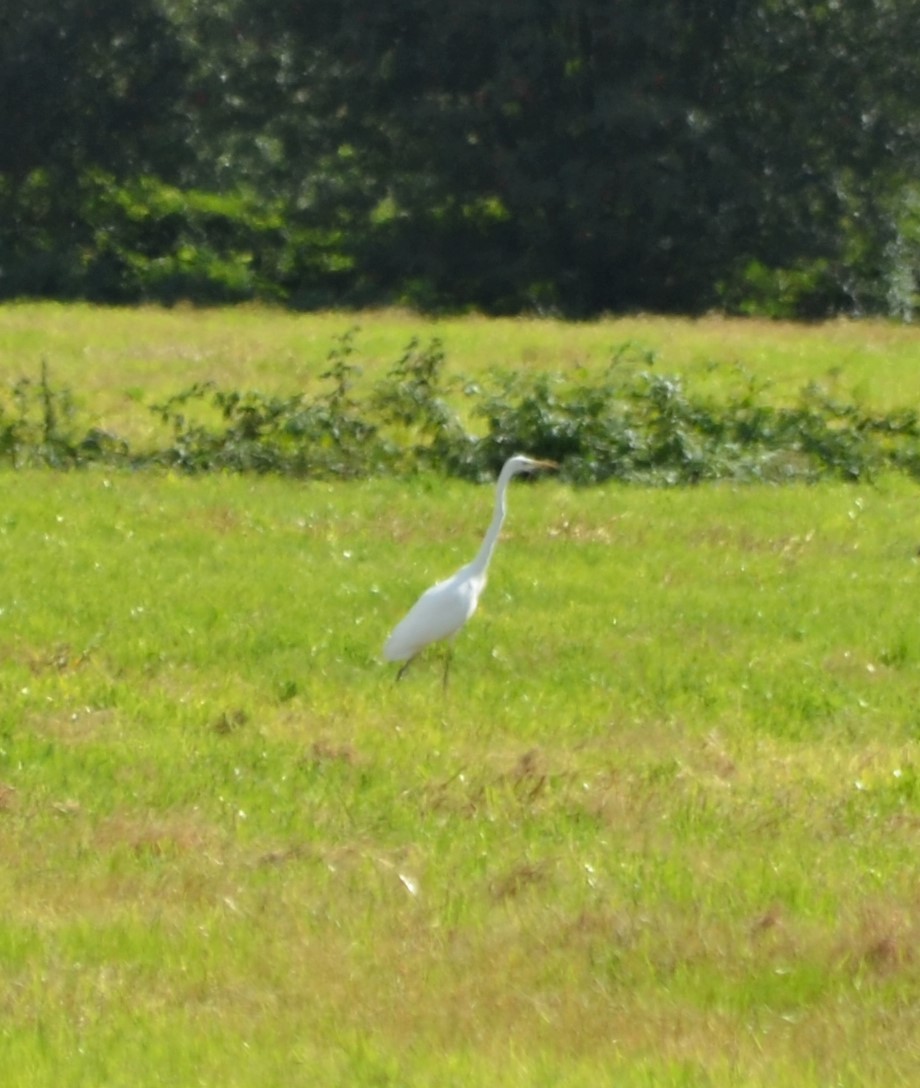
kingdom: Animalia
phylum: Chordata
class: Aves
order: Pelecaniformes
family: Ardeidae
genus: Ardea
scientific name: Ardea alba
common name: Great egret
